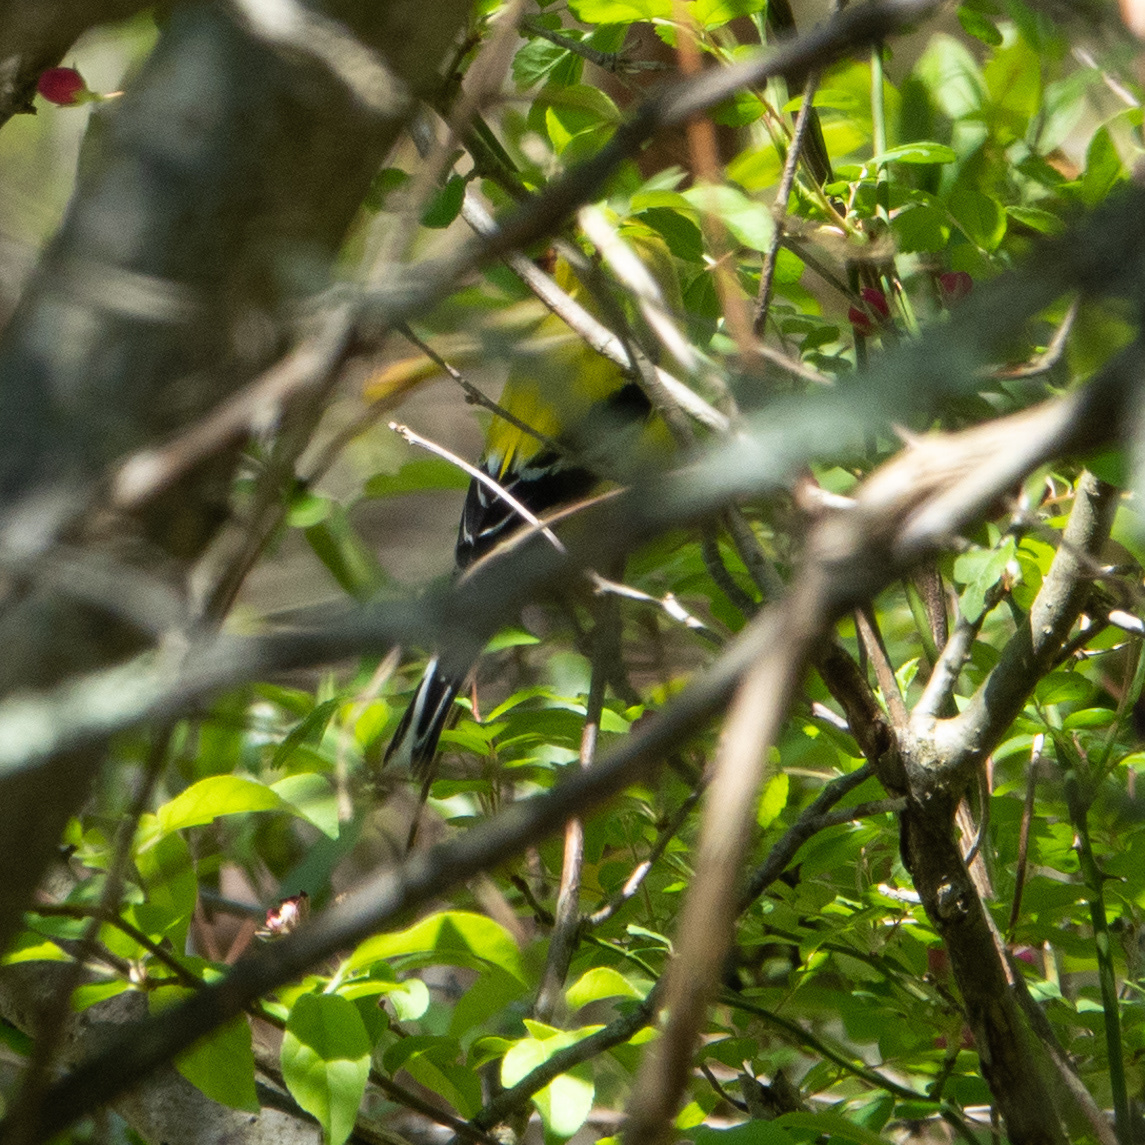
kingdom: Animalia
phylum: Chordata
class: Aves
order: Passeriformes
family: Fringillidae
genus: Spinus
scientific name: Spinus tristis
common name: American goldfinch
